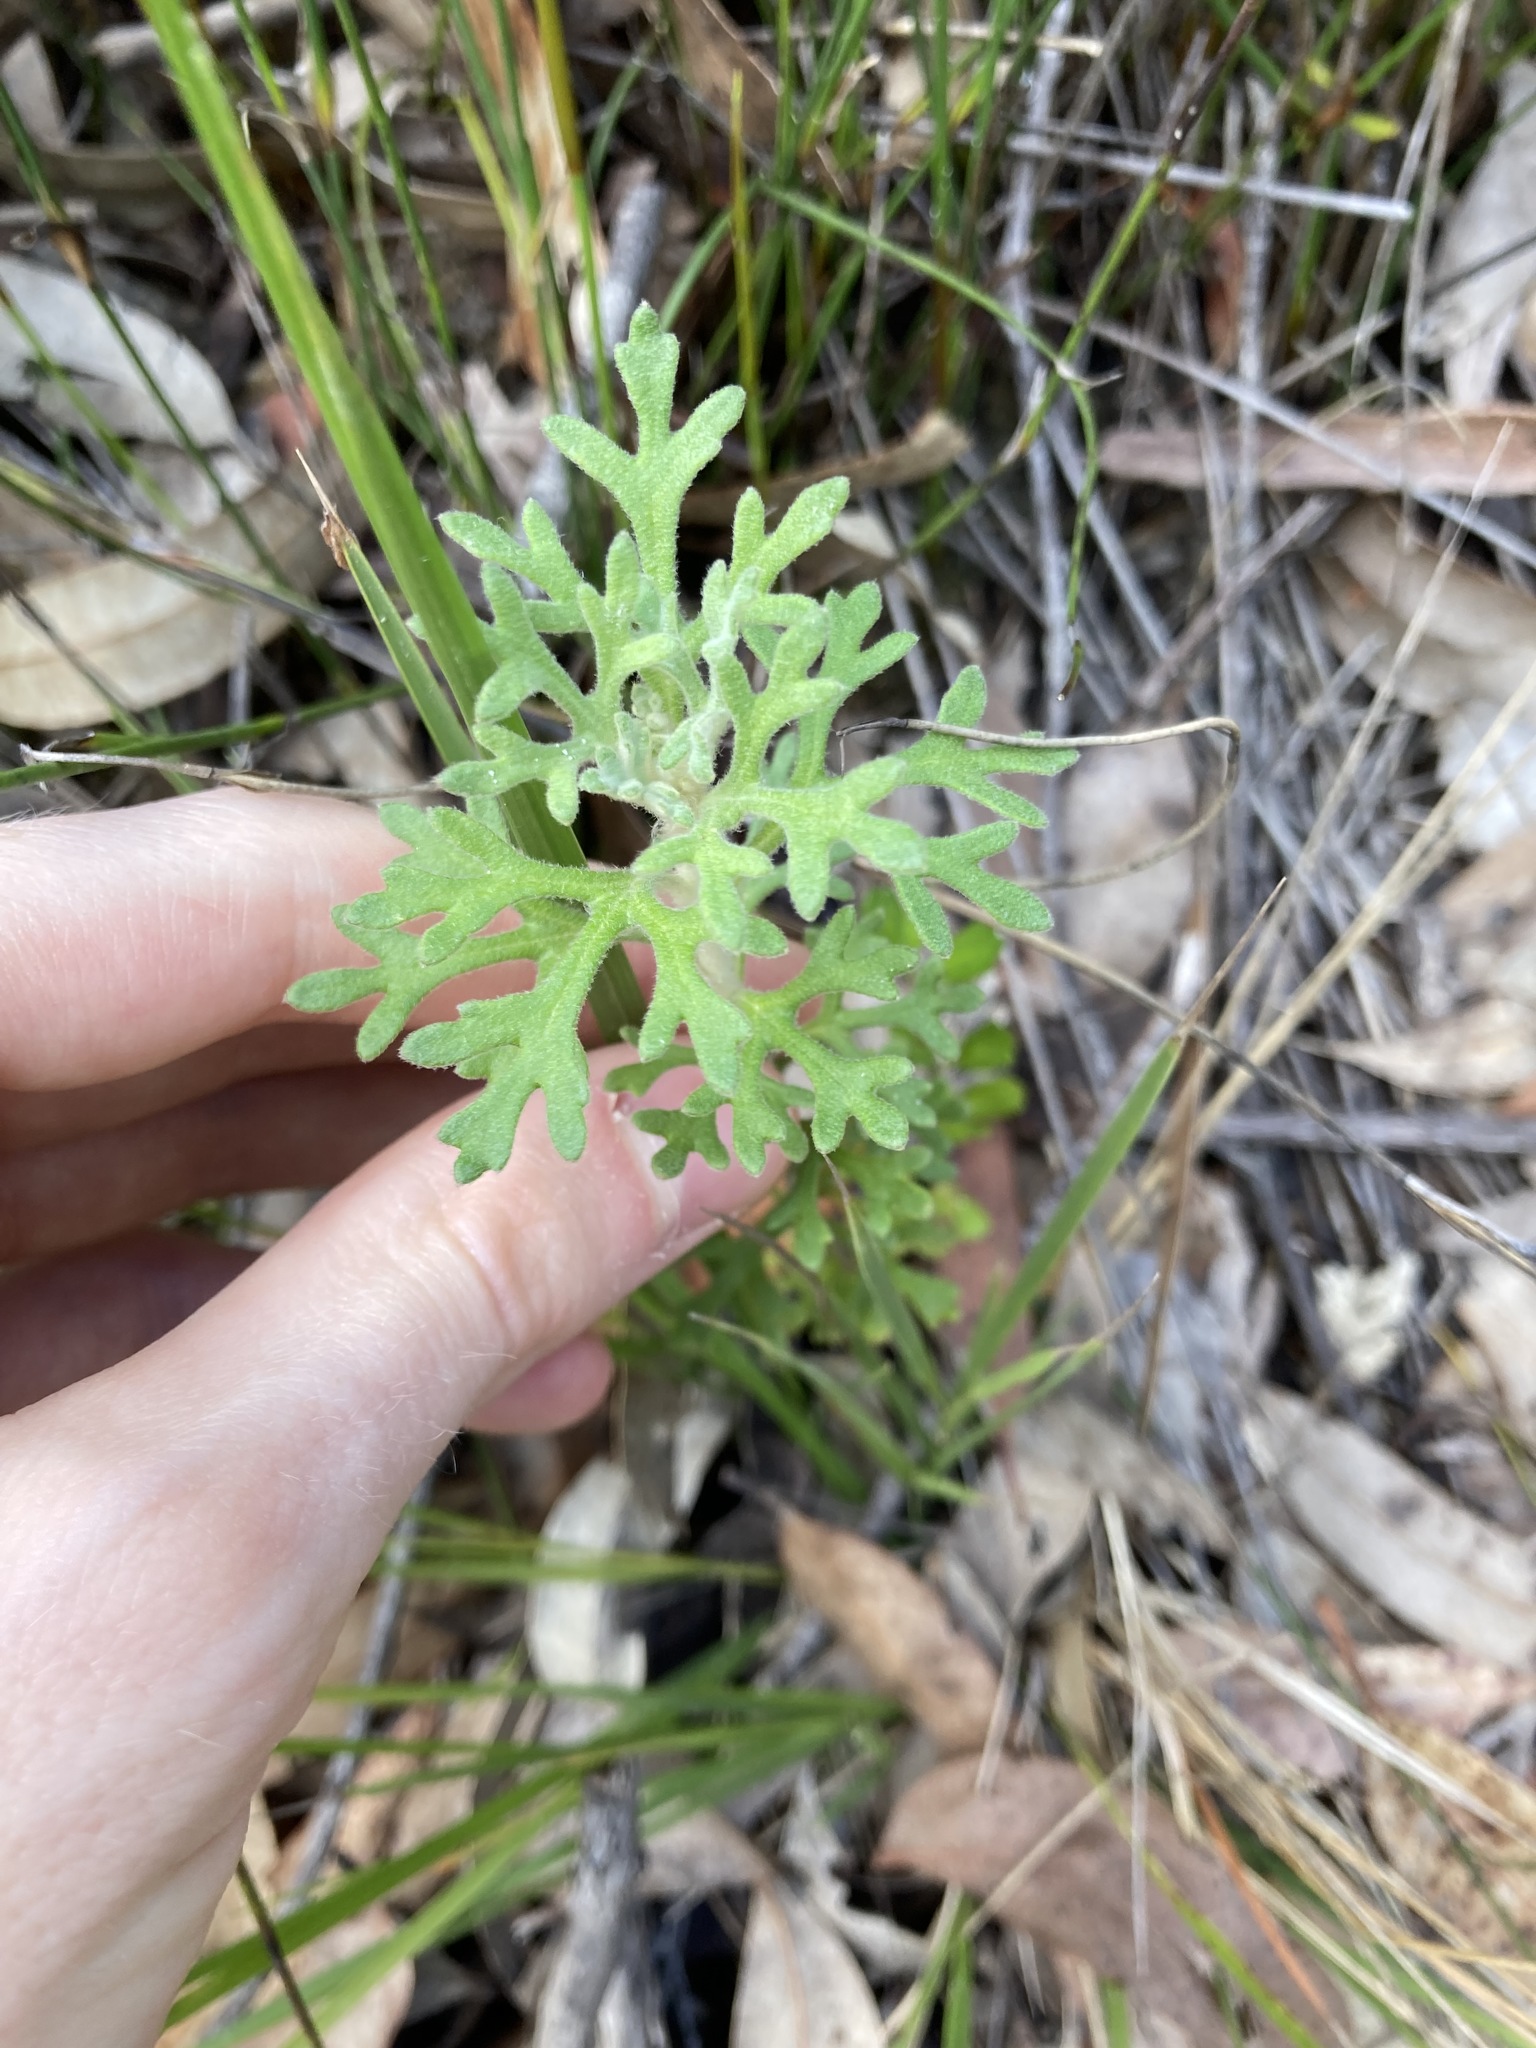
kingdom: Plantae
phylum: Tracheophyta
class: Magnoliopsida
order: Apiales
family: Apiaceae
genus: Actinotus
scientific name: Actinotus helianthi
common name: Flannel-flower
